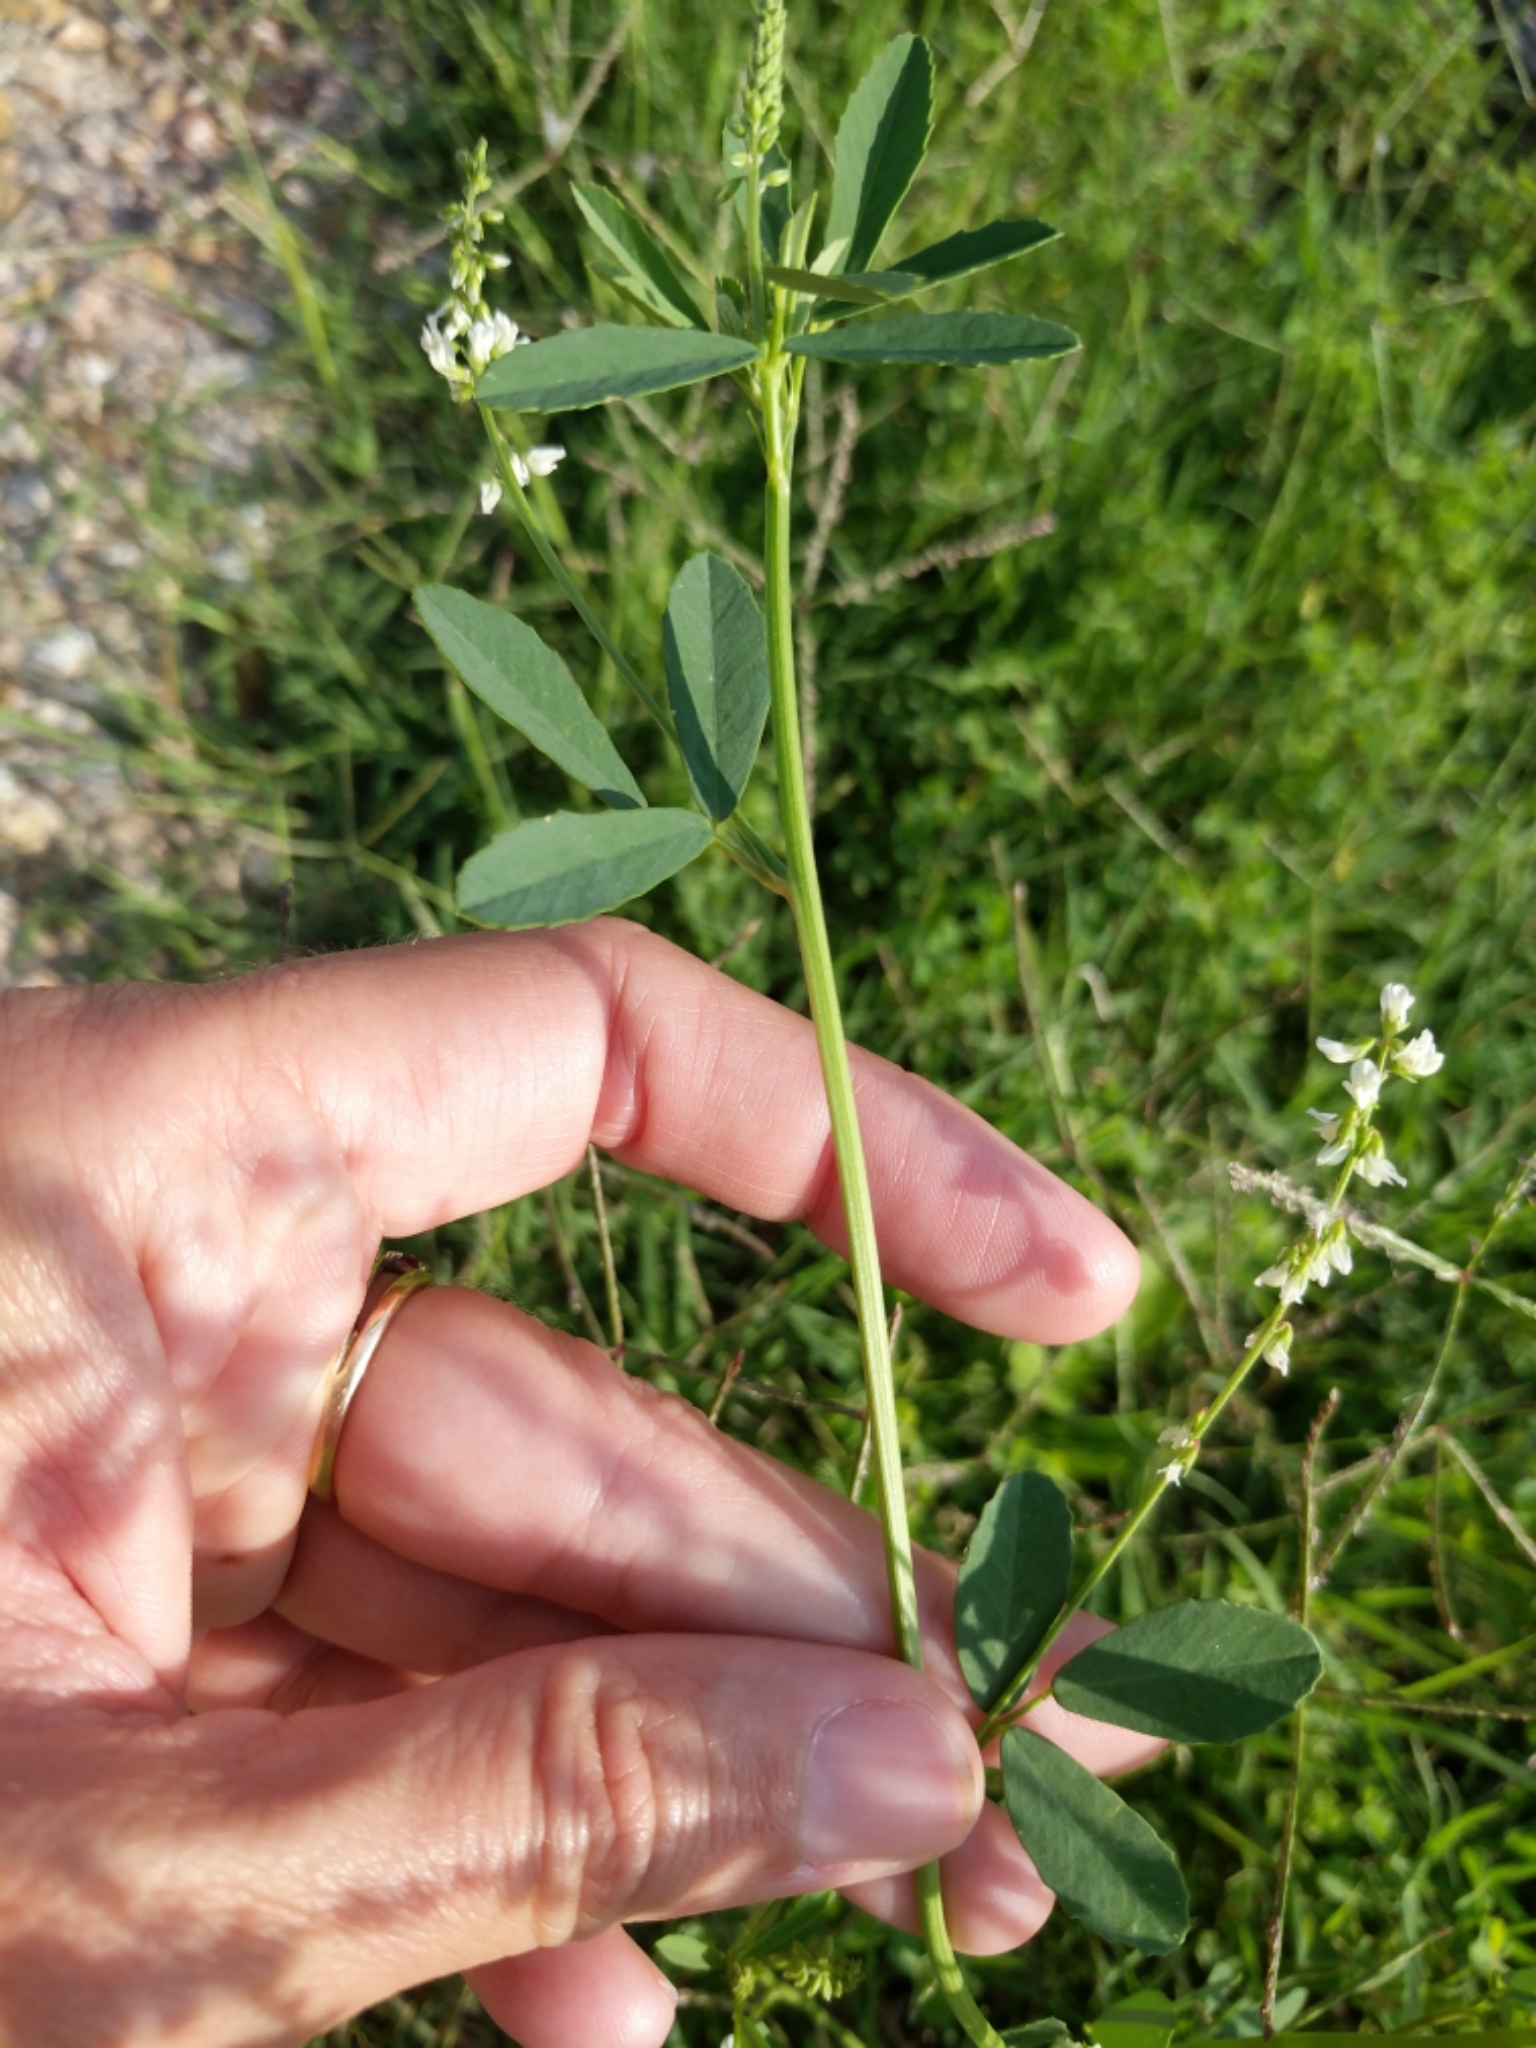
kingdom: Plantae
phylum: Tracheophyta
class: Magnoliopsida
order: Fabales
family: Fabaceae
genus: Melilotus
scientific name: Melilotus albus
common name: White melilot
